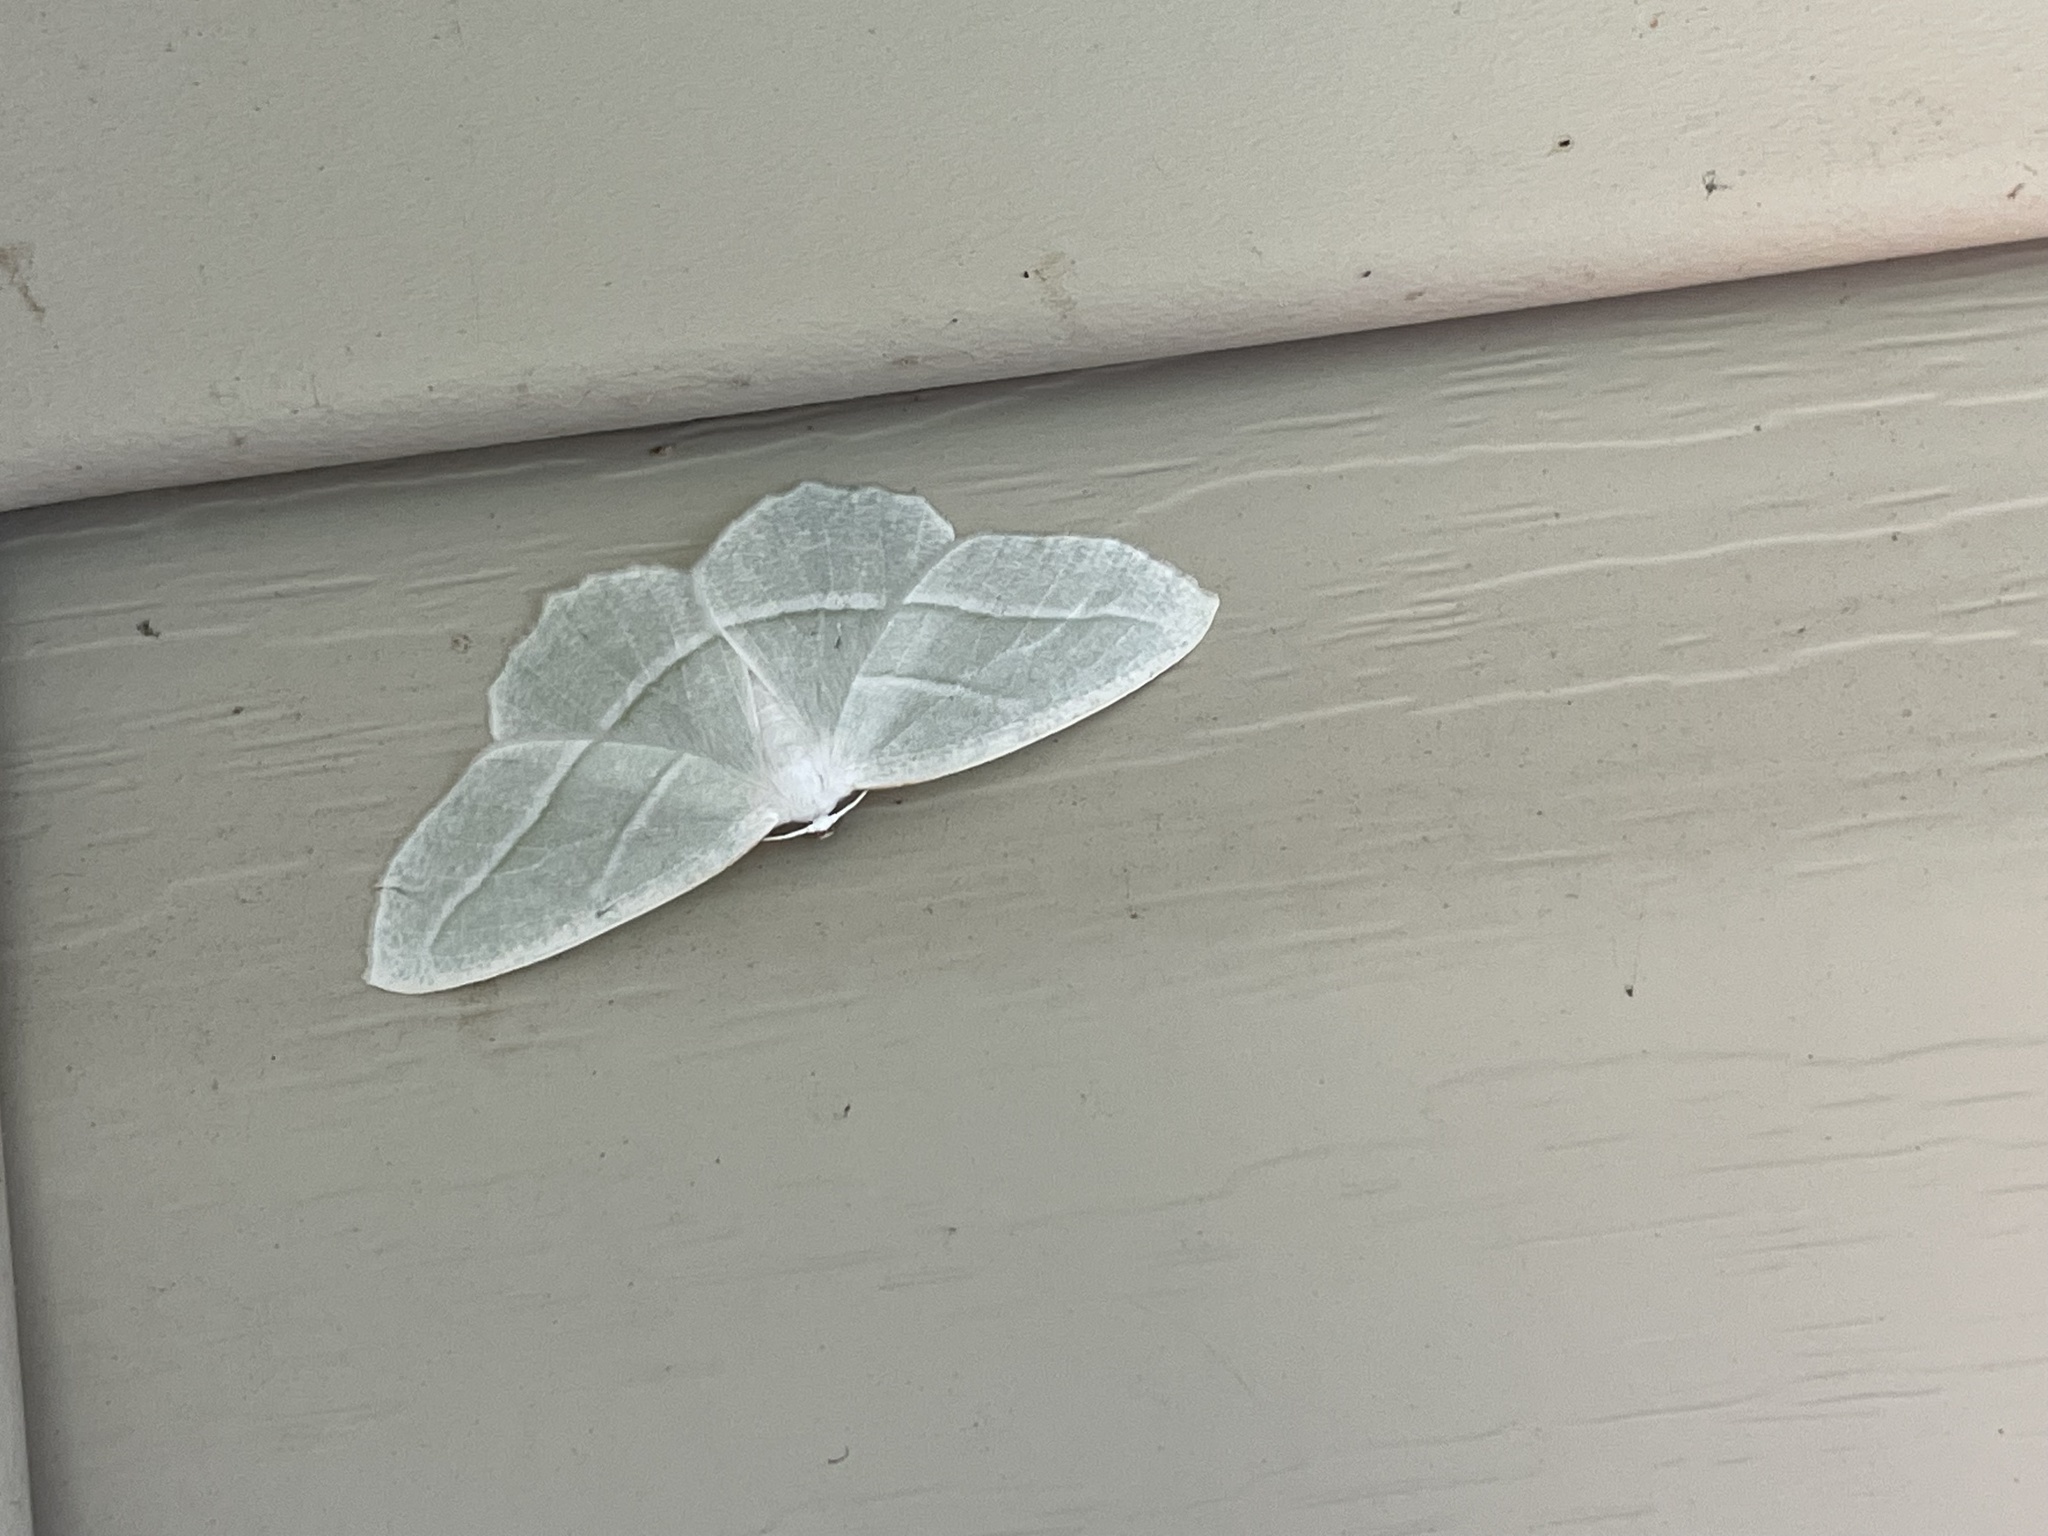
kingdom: Animalia
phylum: Arthropoda
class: Insecta
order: Lepidoptera
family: Geometridae
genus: Campaea
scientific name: Campaea perlata
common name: Fringed looper
